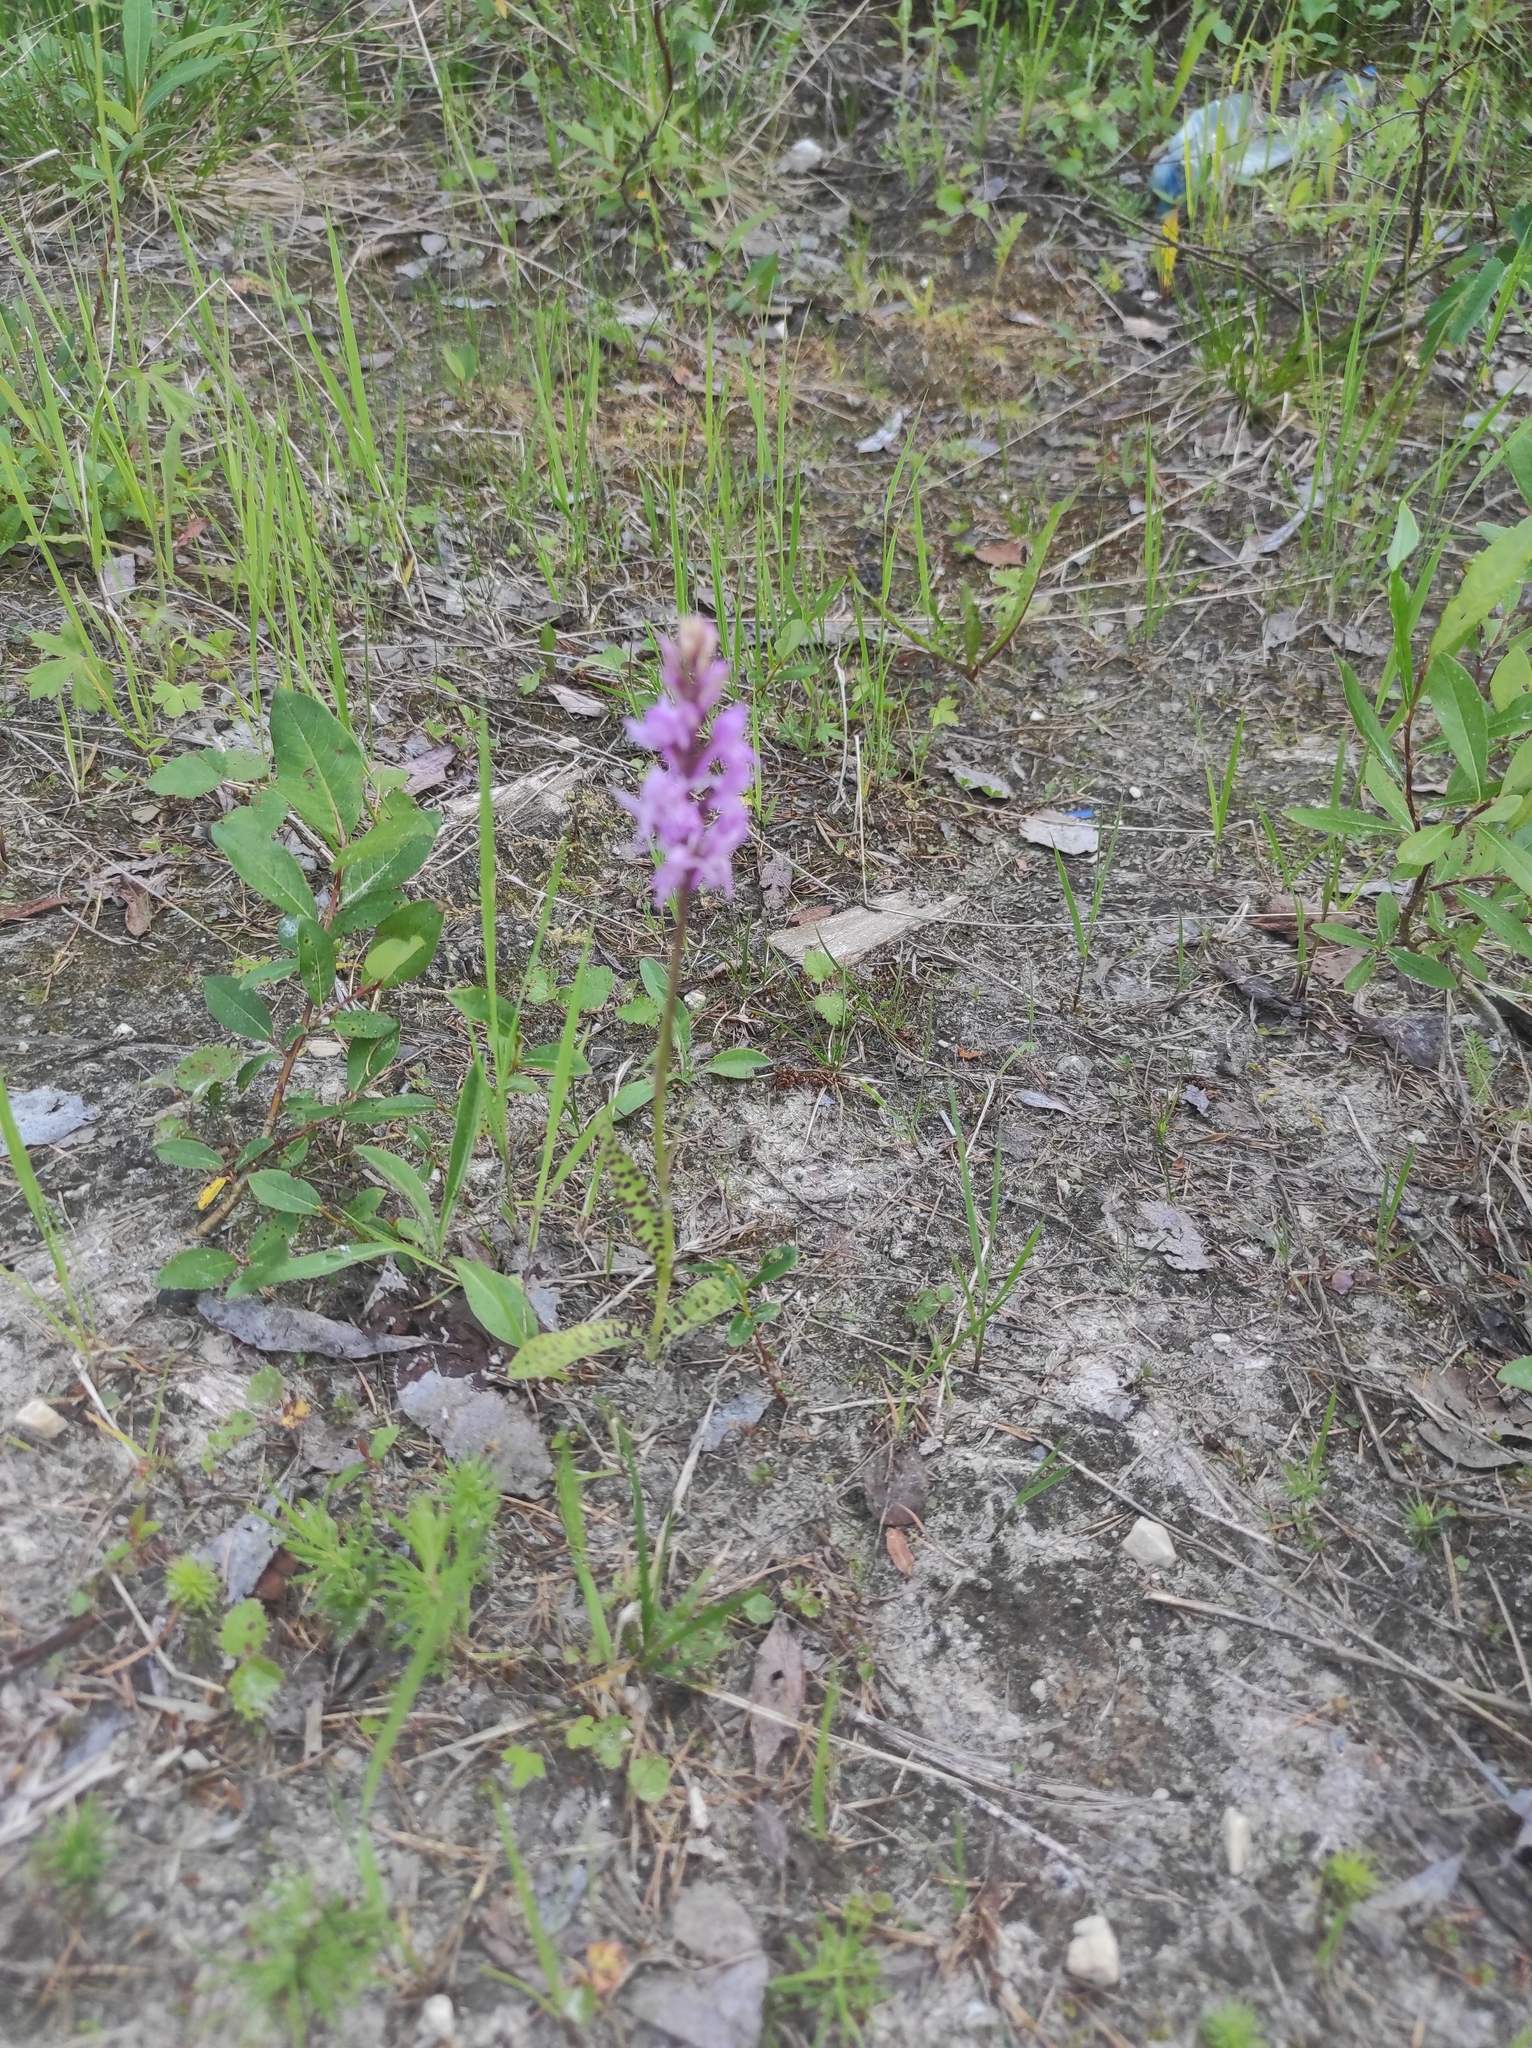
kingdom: Plantae
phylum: Tracheophyta
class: Liliopsida
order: Asparagales
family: Orchidaceae
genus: Dactylorhiza
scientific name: Dactylorhiza maculata
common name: Heath spotted-orchid
